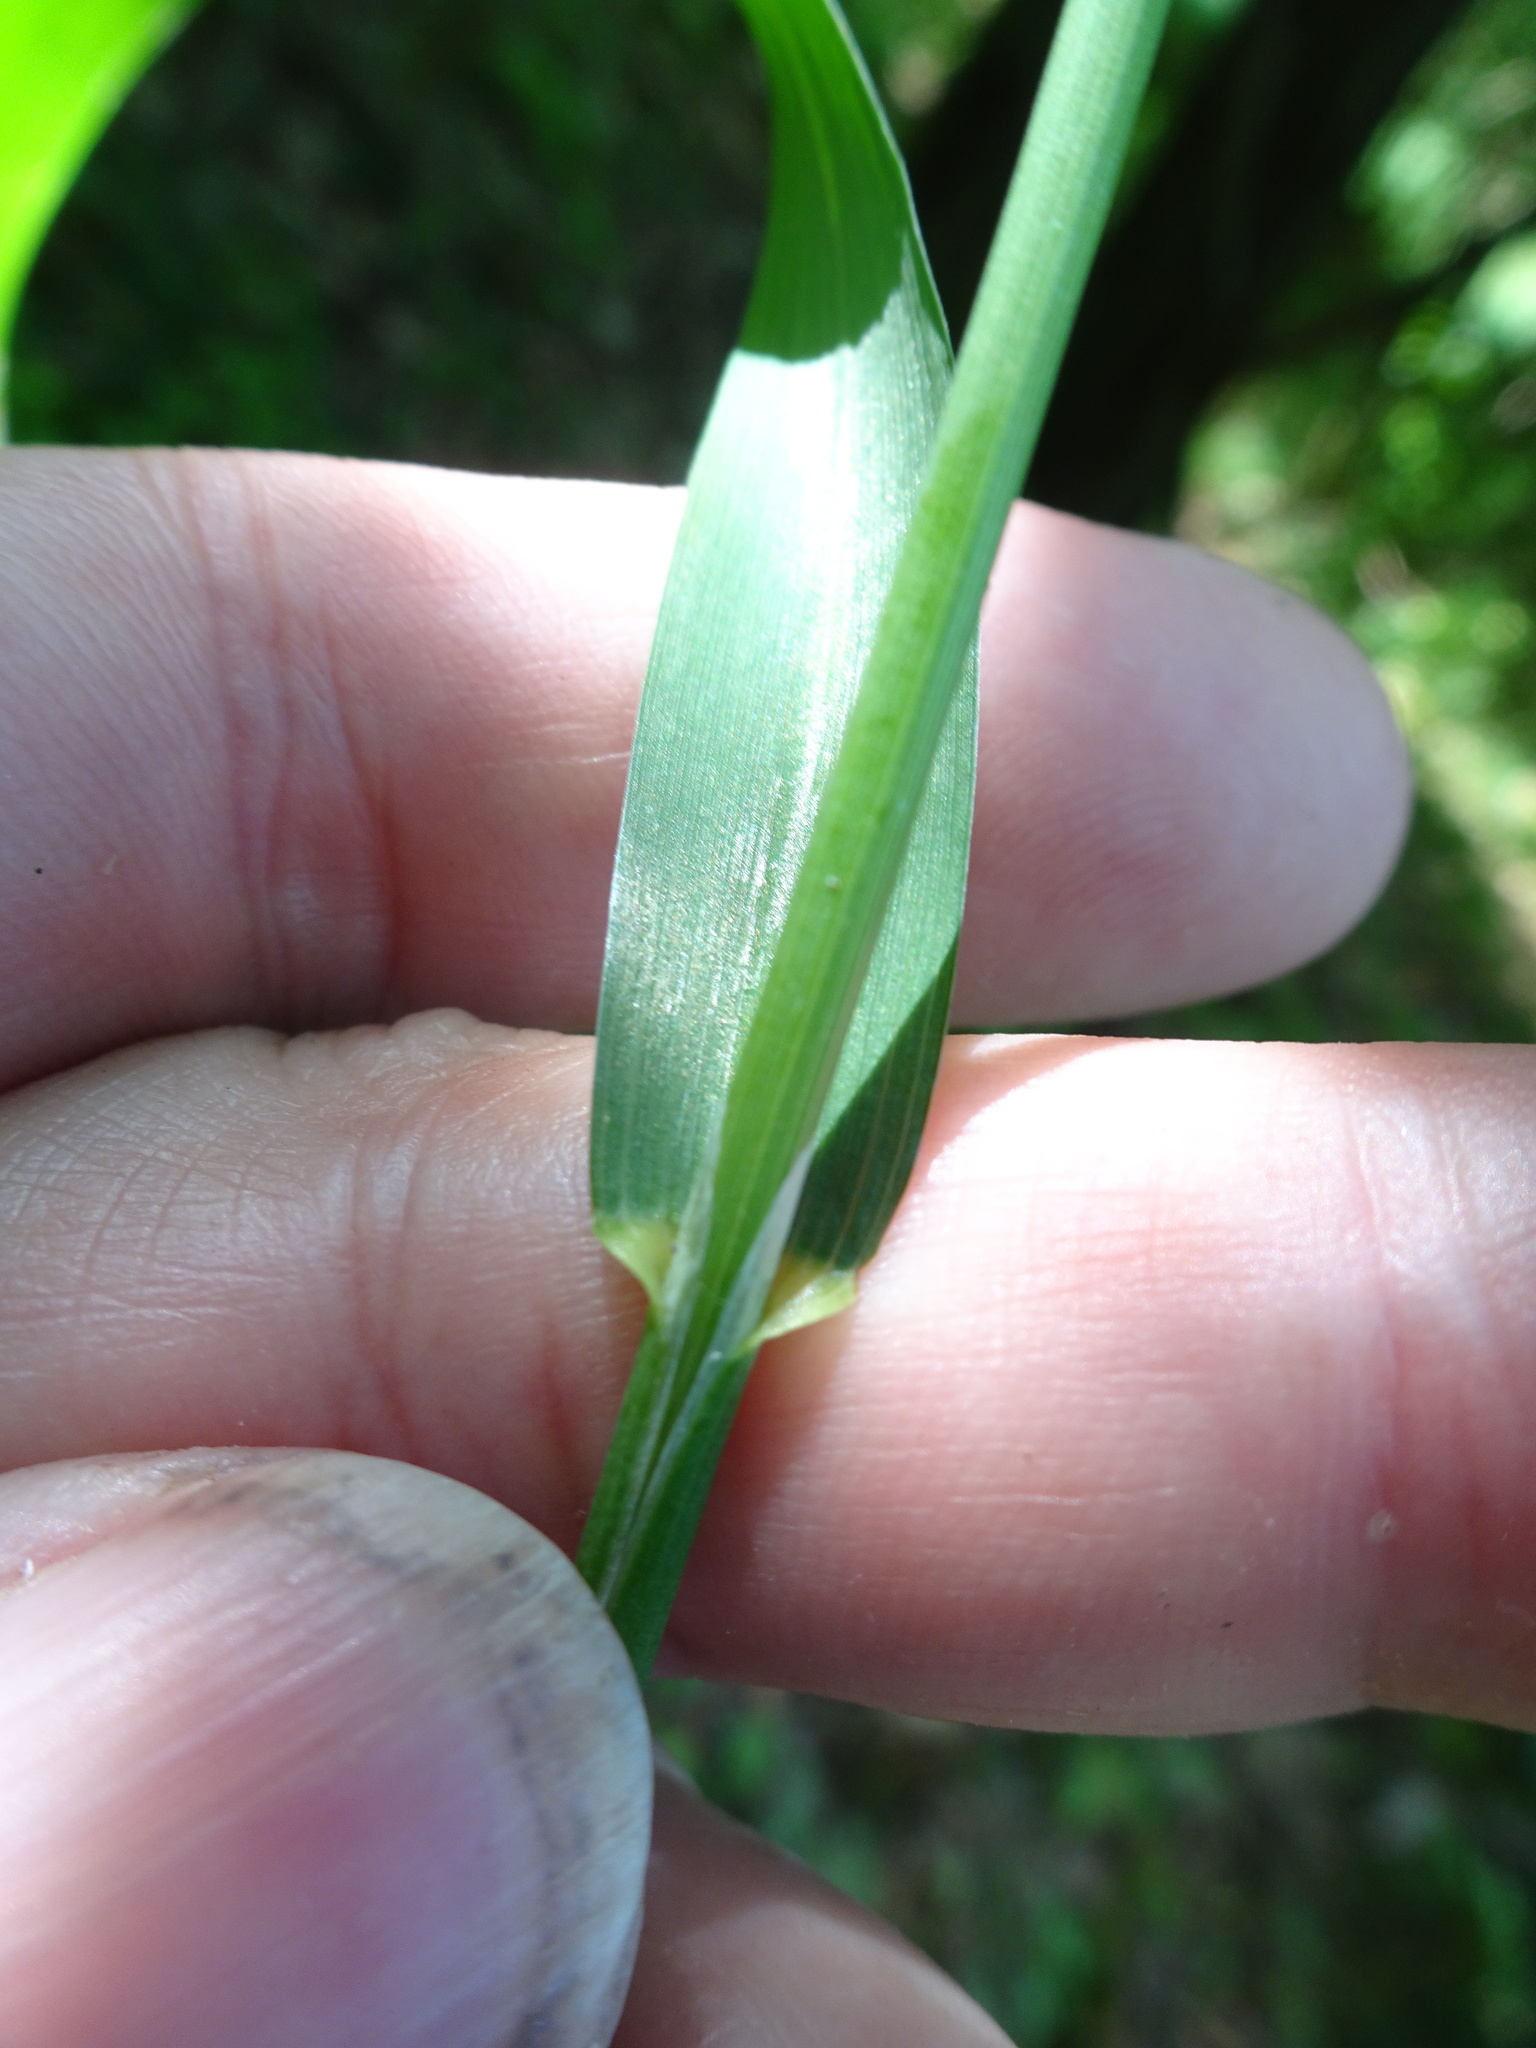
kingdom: Plantae
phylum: Tracheophyta
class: Liliopsida
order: Poales
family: Poaceae
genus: Milium
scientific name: Milium effusum
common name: Wood millet
